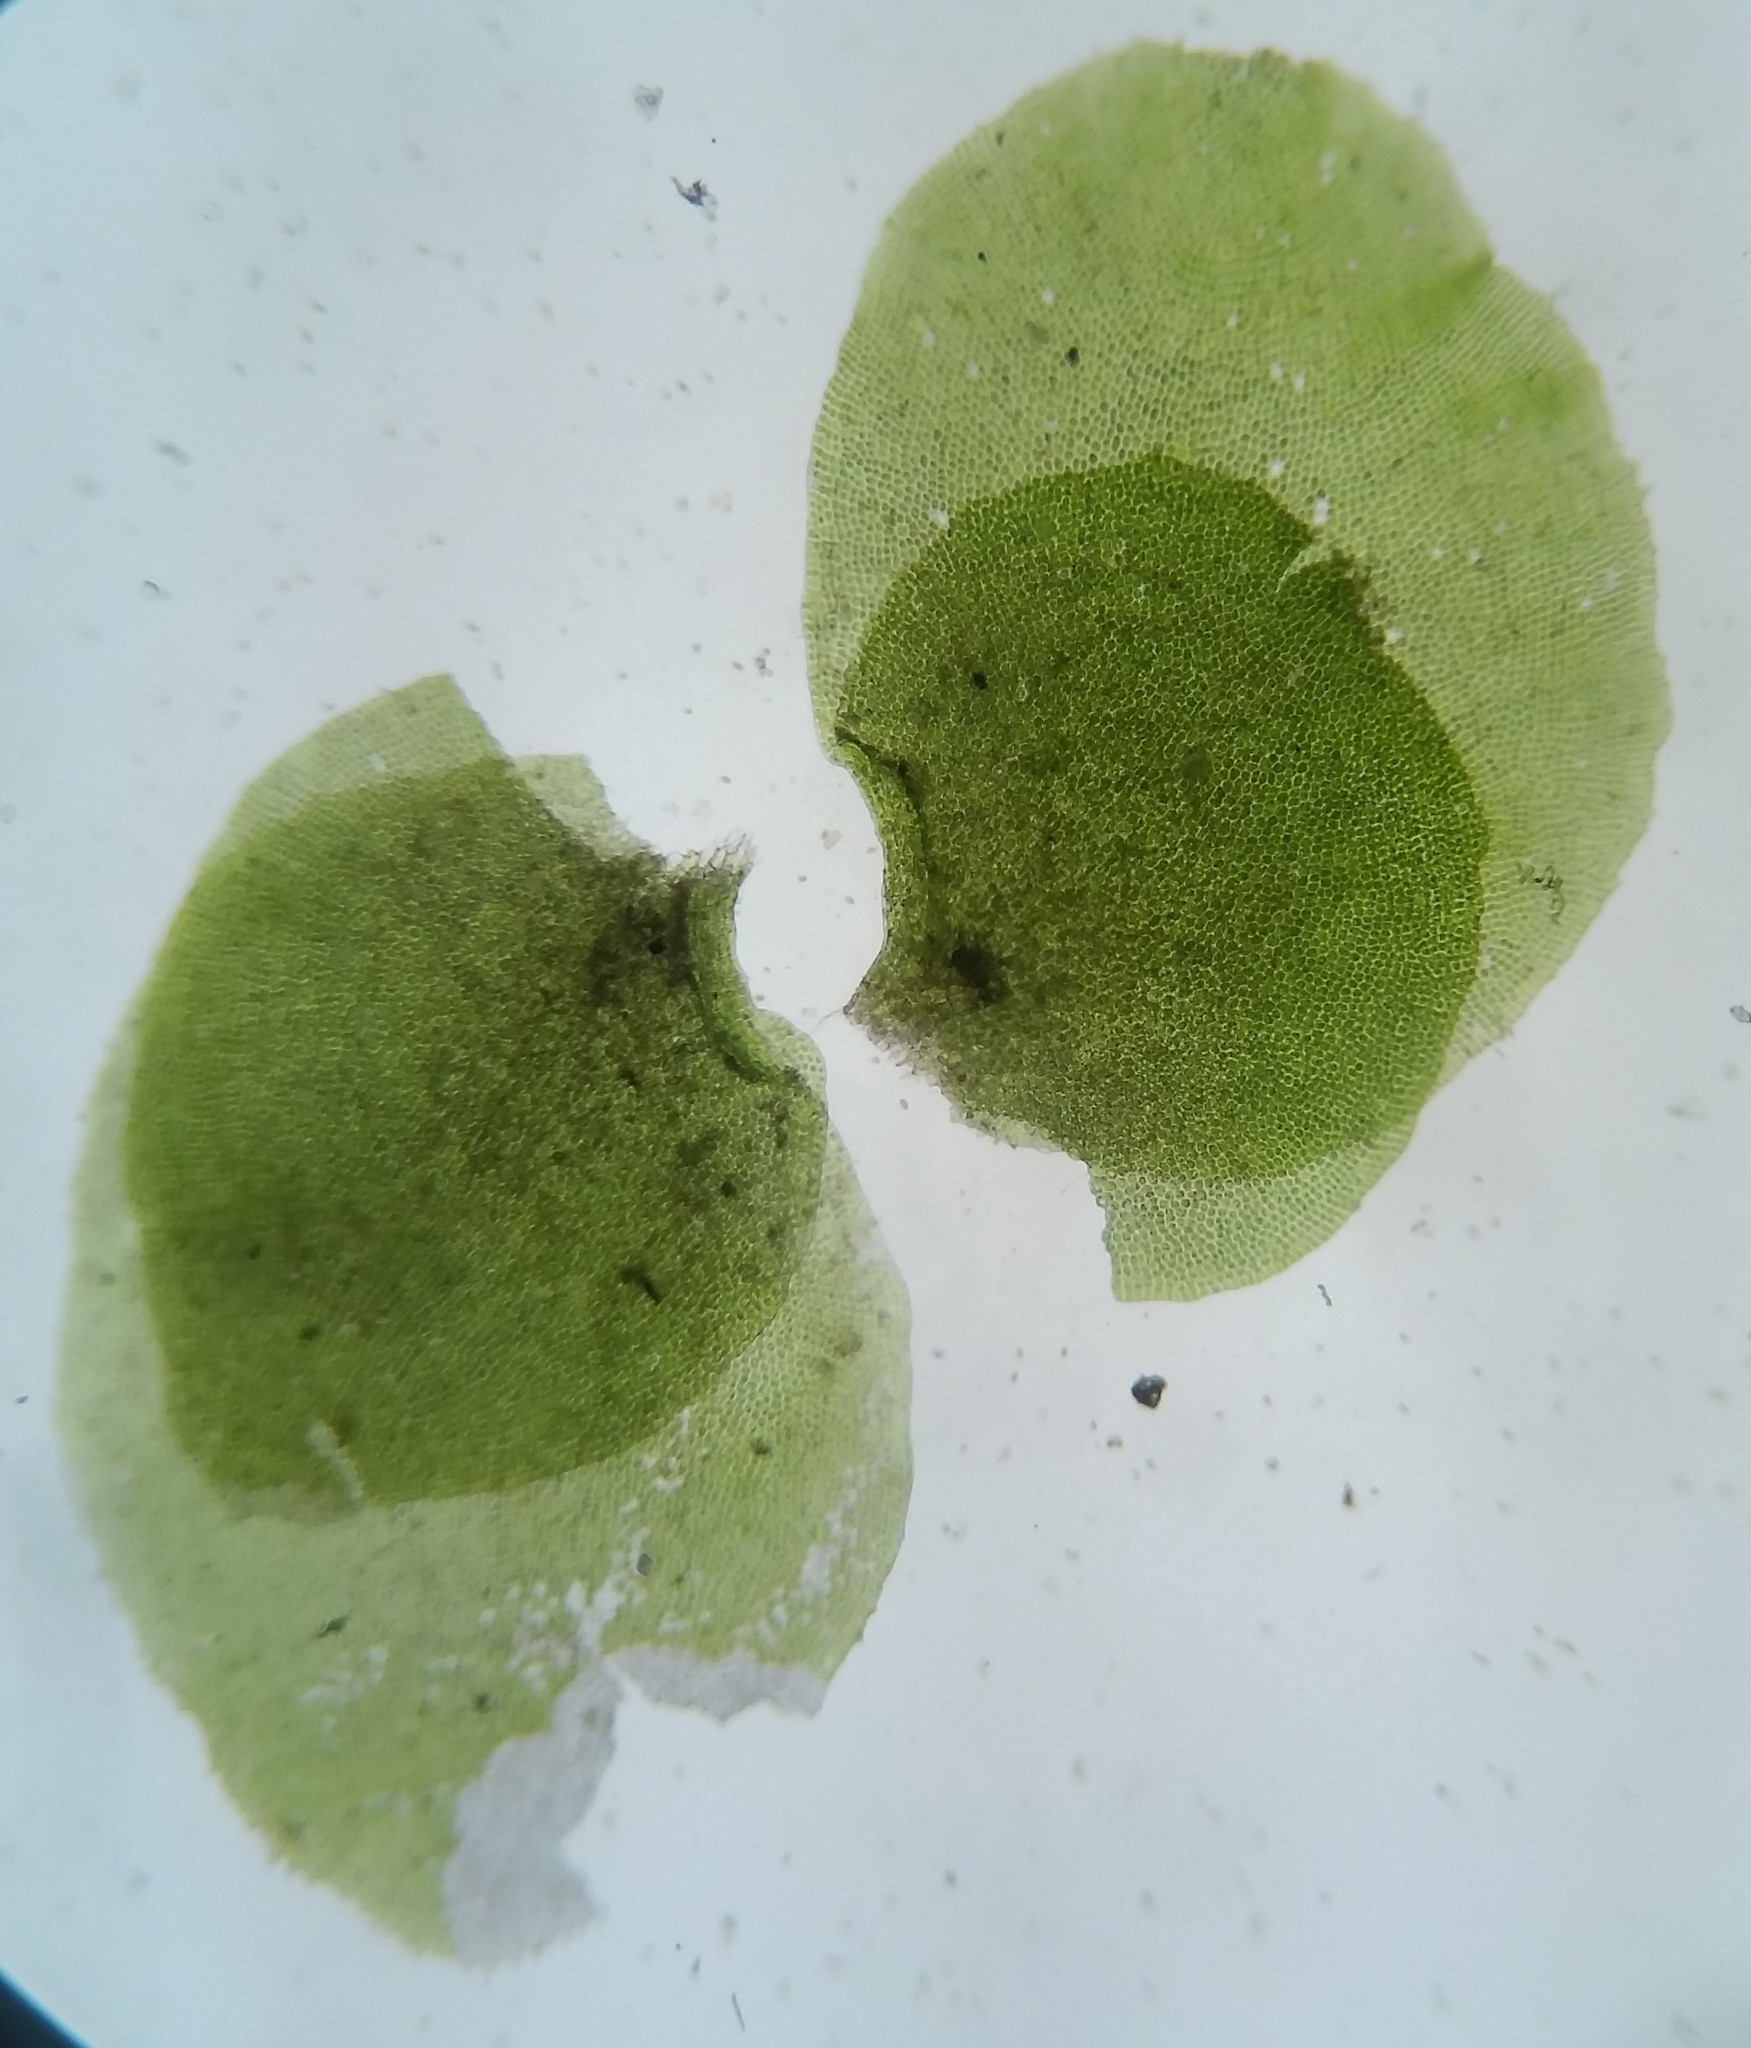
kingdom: Plantae
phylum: Marchantiophyta
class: Jungermanniopsida
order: Jungermanniales
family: Scapaniaceae
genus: Scapania
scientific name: Scapania nemorea
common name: Grove earwort
